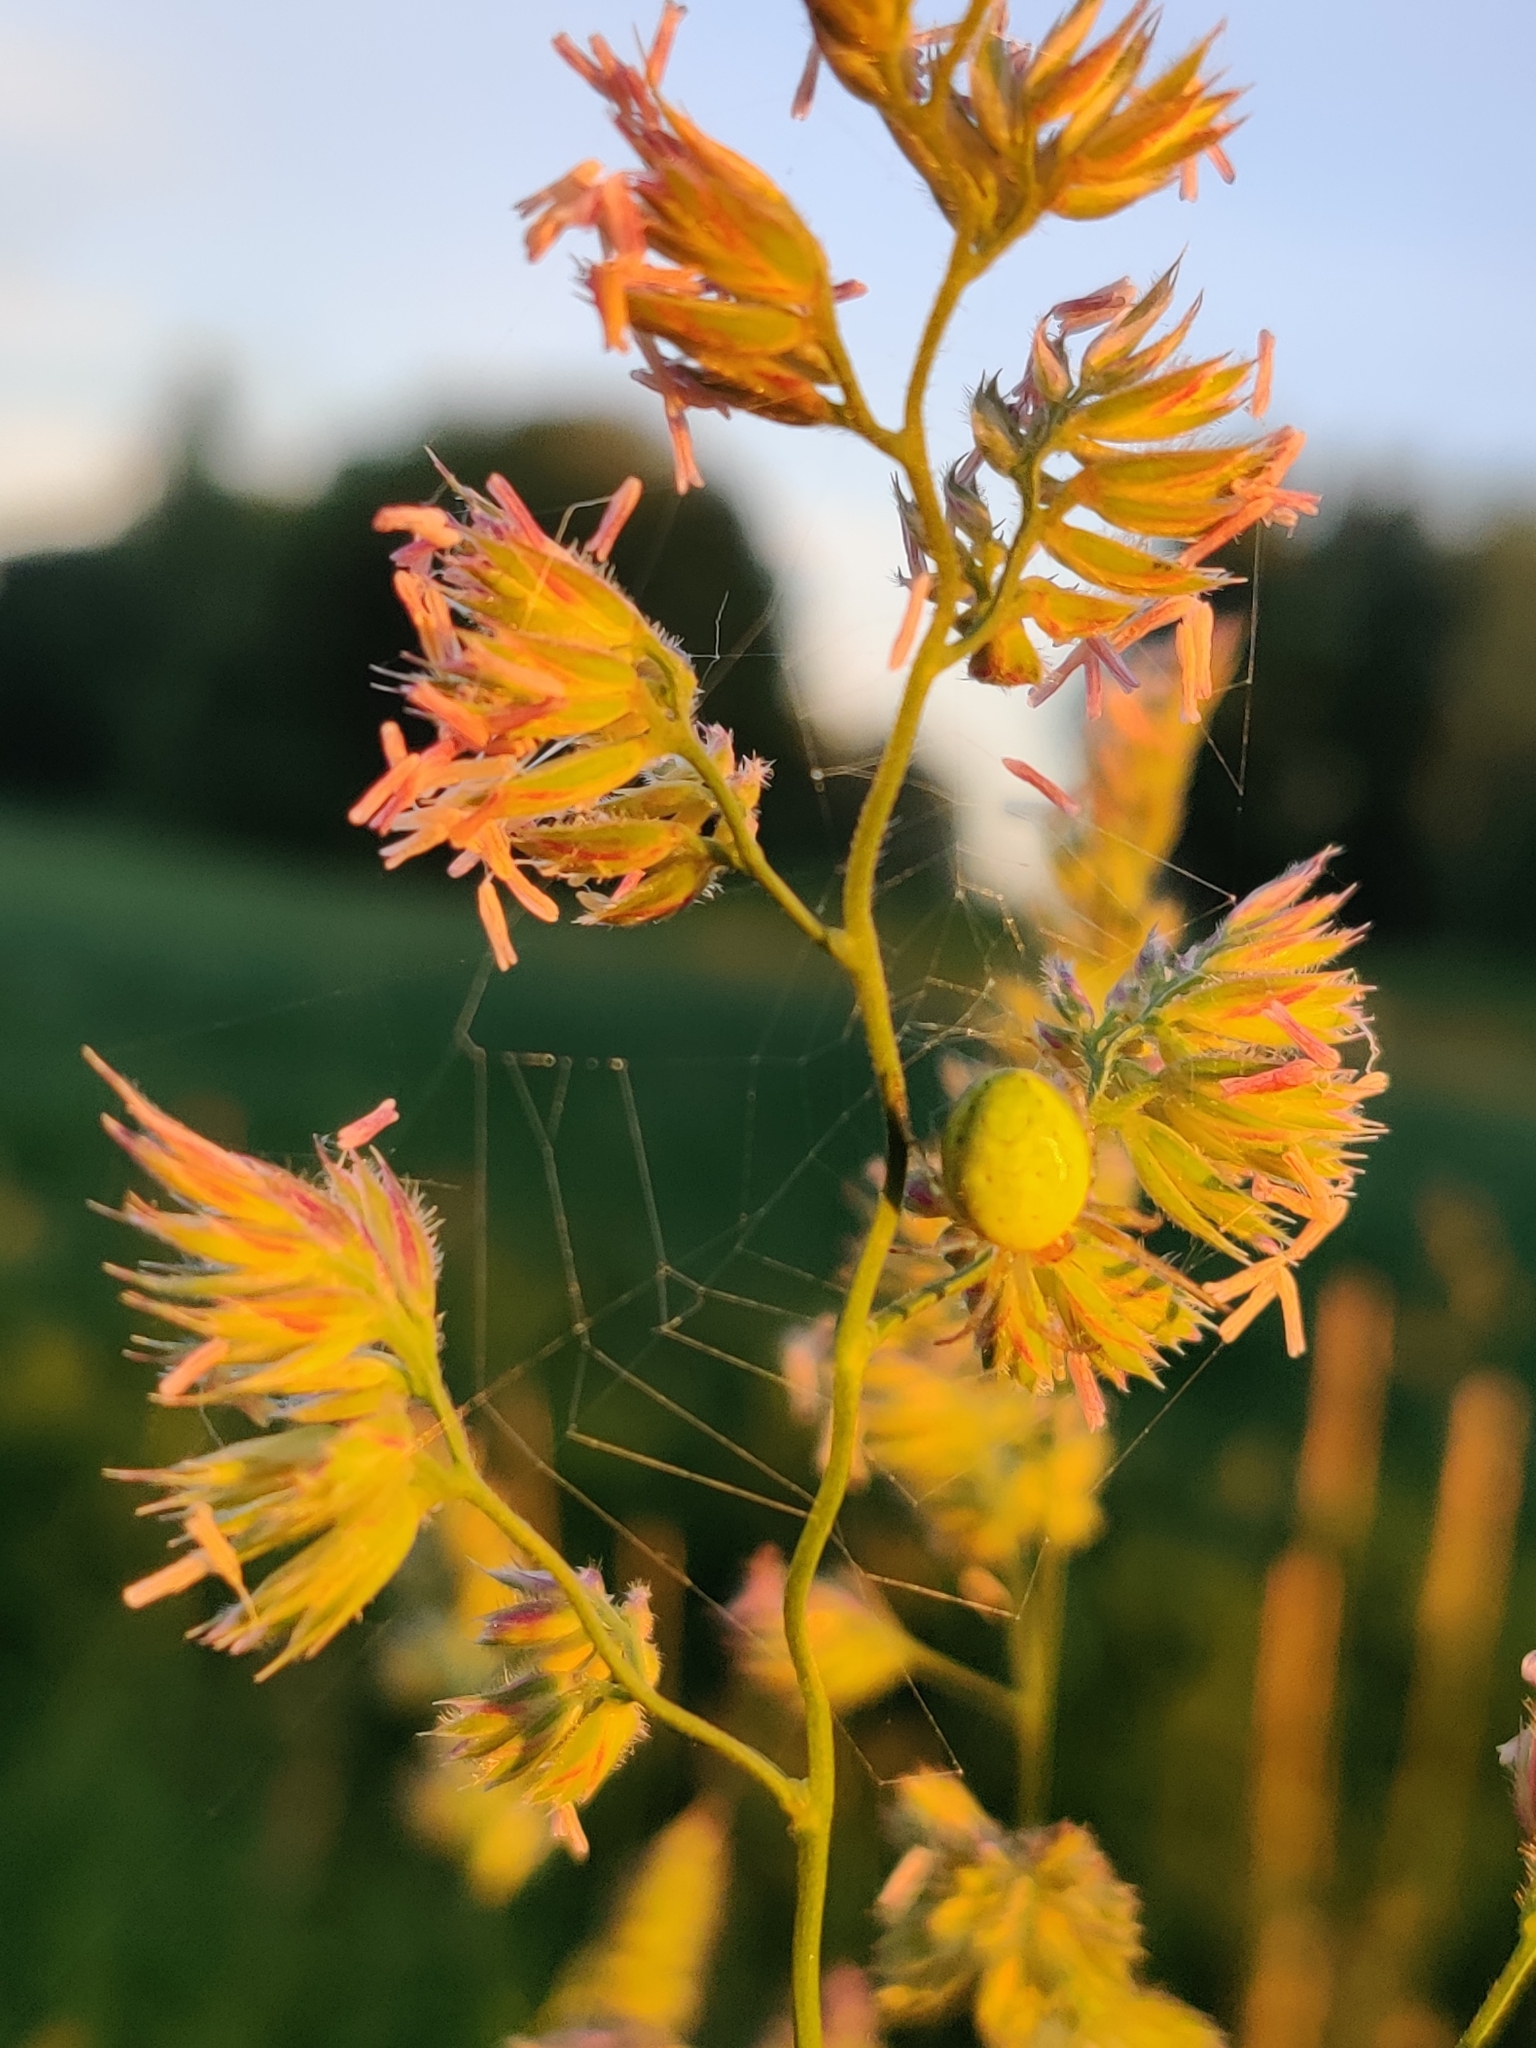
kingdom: Animalia
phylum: Arthropoda
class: Arachnida
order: Araneae
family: Araneidae
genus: Araniella
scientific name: Araniella
